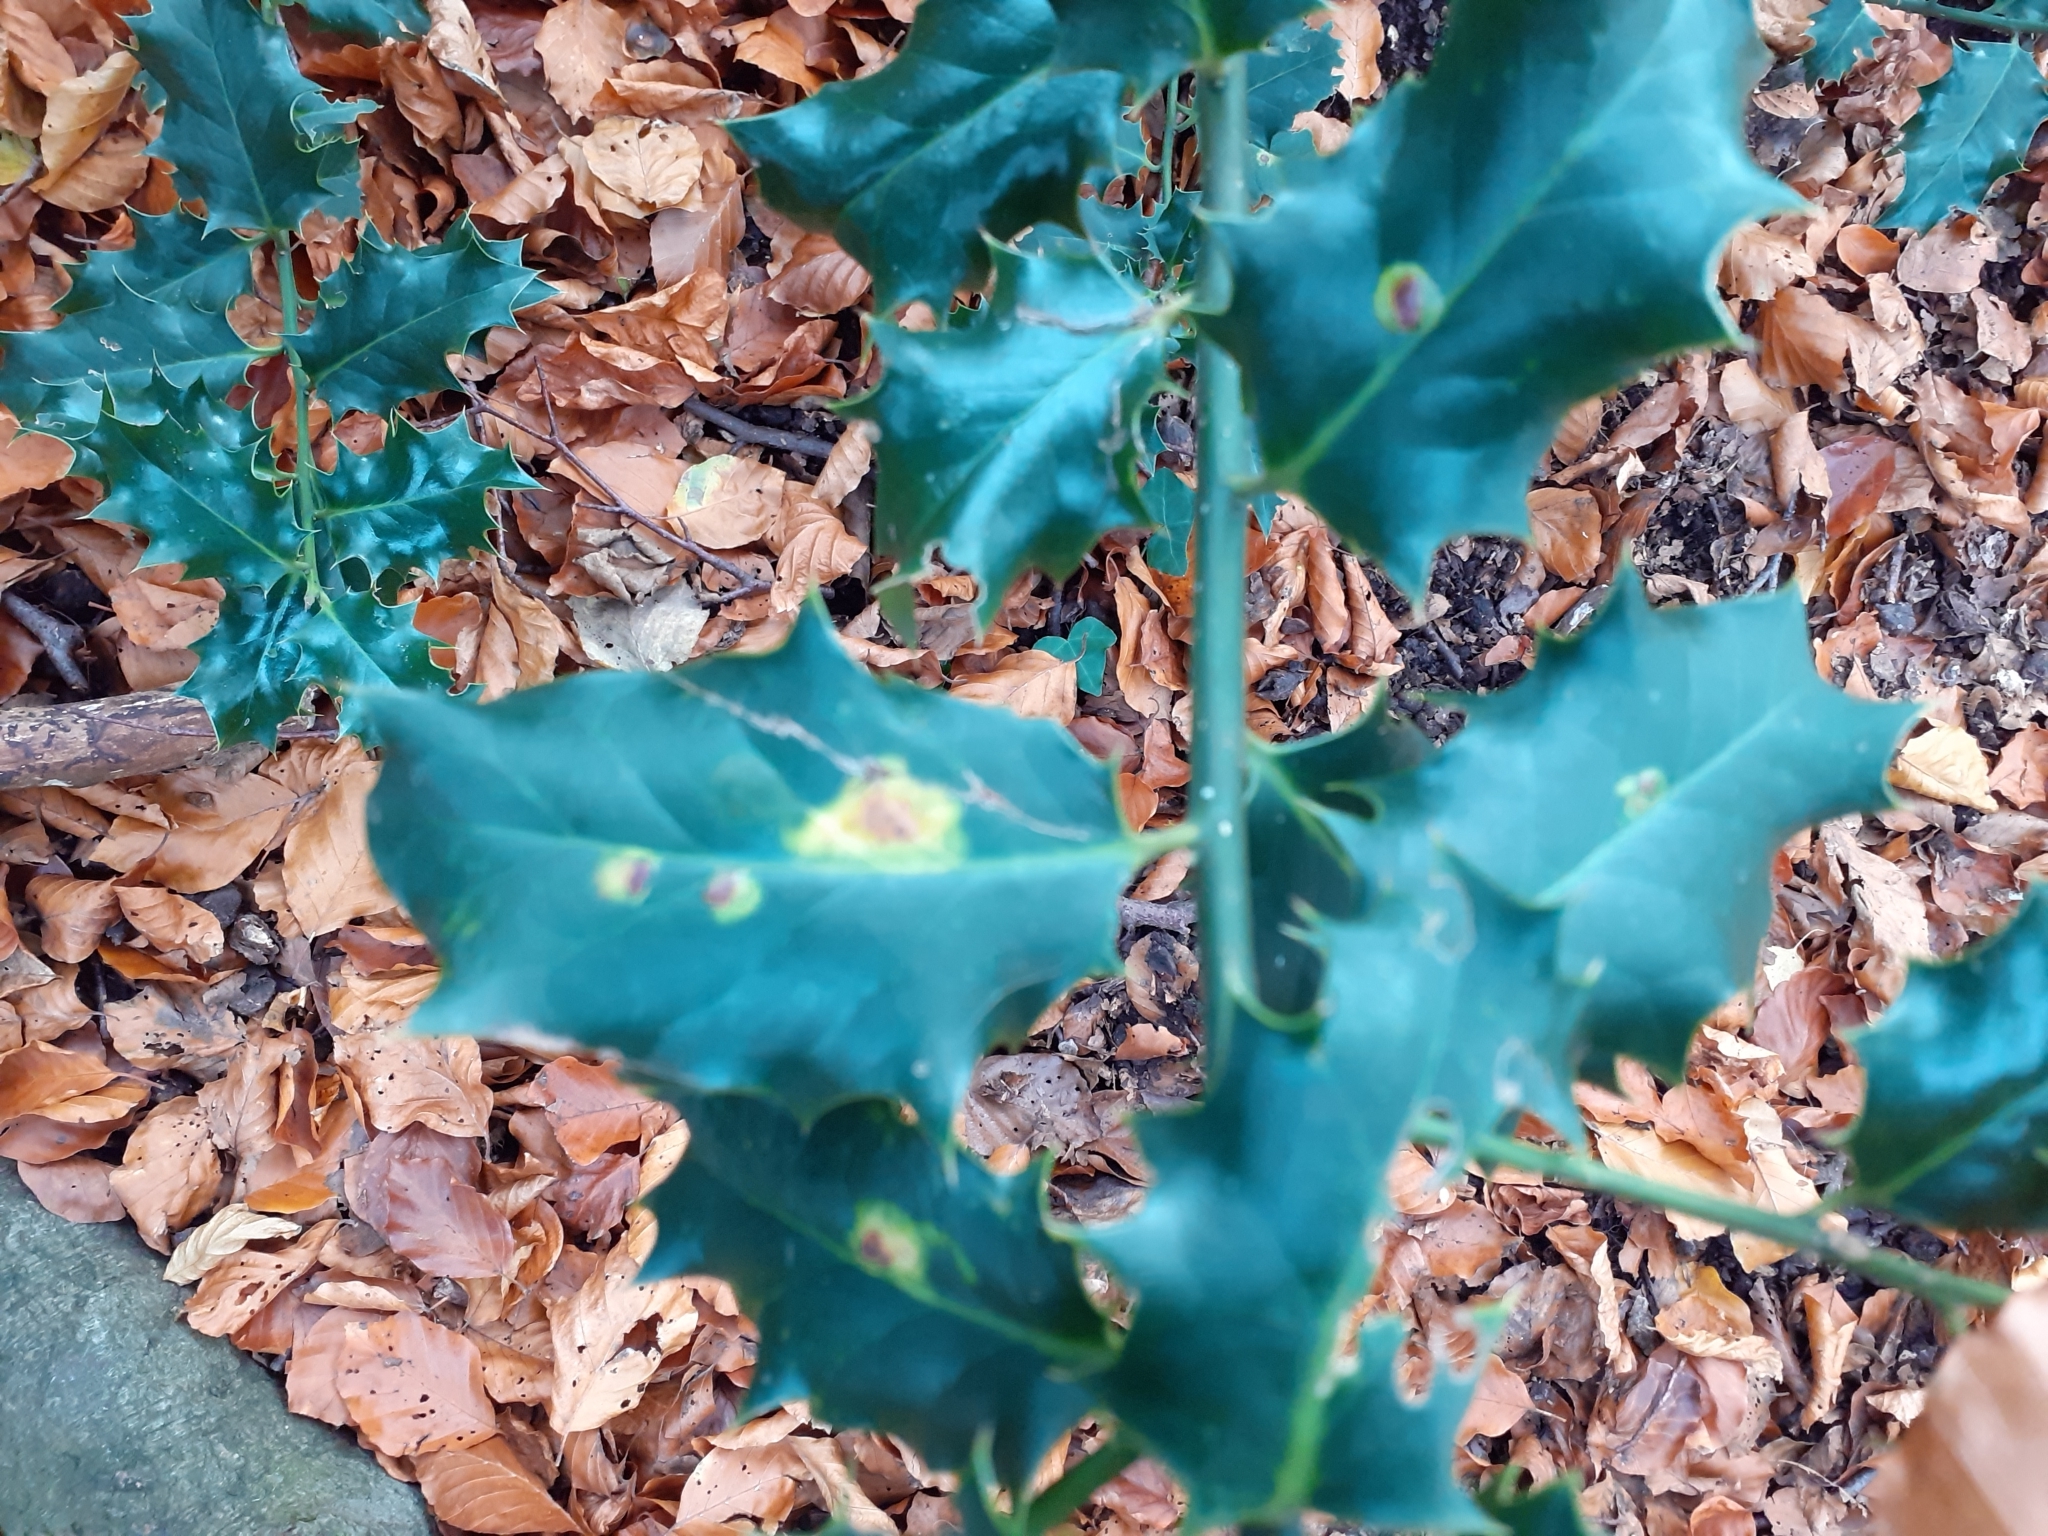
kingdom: Animalia
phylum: Arthropoda
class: Insecta
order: Diptera
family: Agromyzidae
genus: Phytomyza
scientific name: Phytomyza ilicis
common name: Holly leafminer
